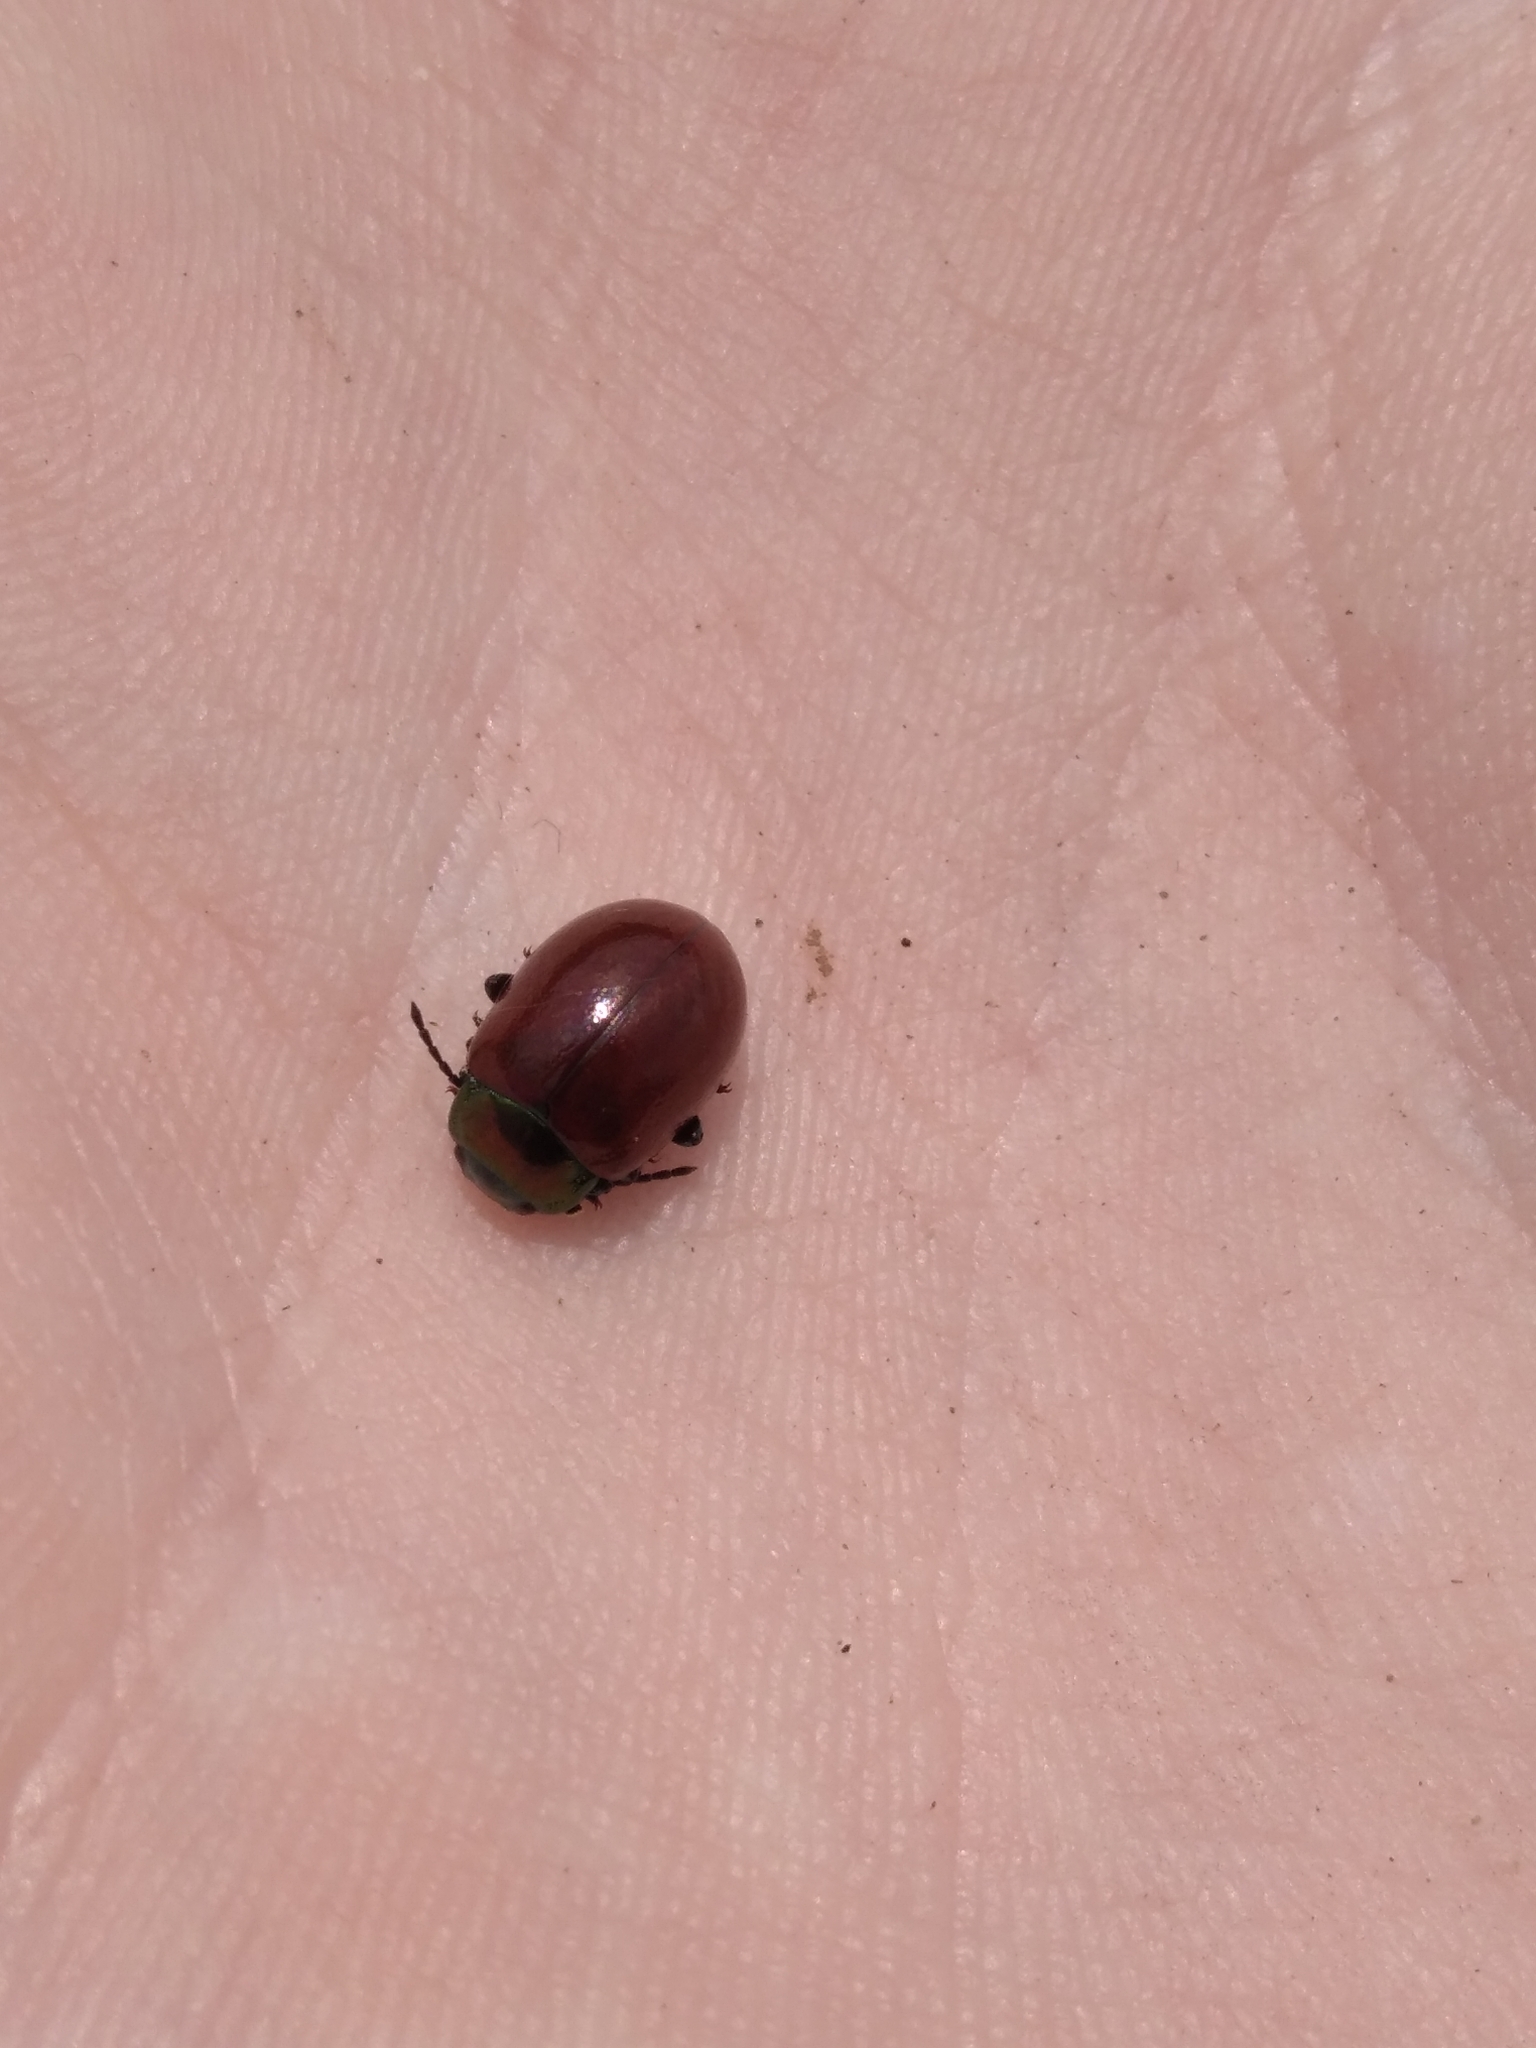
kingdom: Animalia
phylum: Arthropoda
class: Insecta
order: Coleoptera
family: Chrysomelidae
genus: Chrysomela
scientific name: Chrysomela polita
